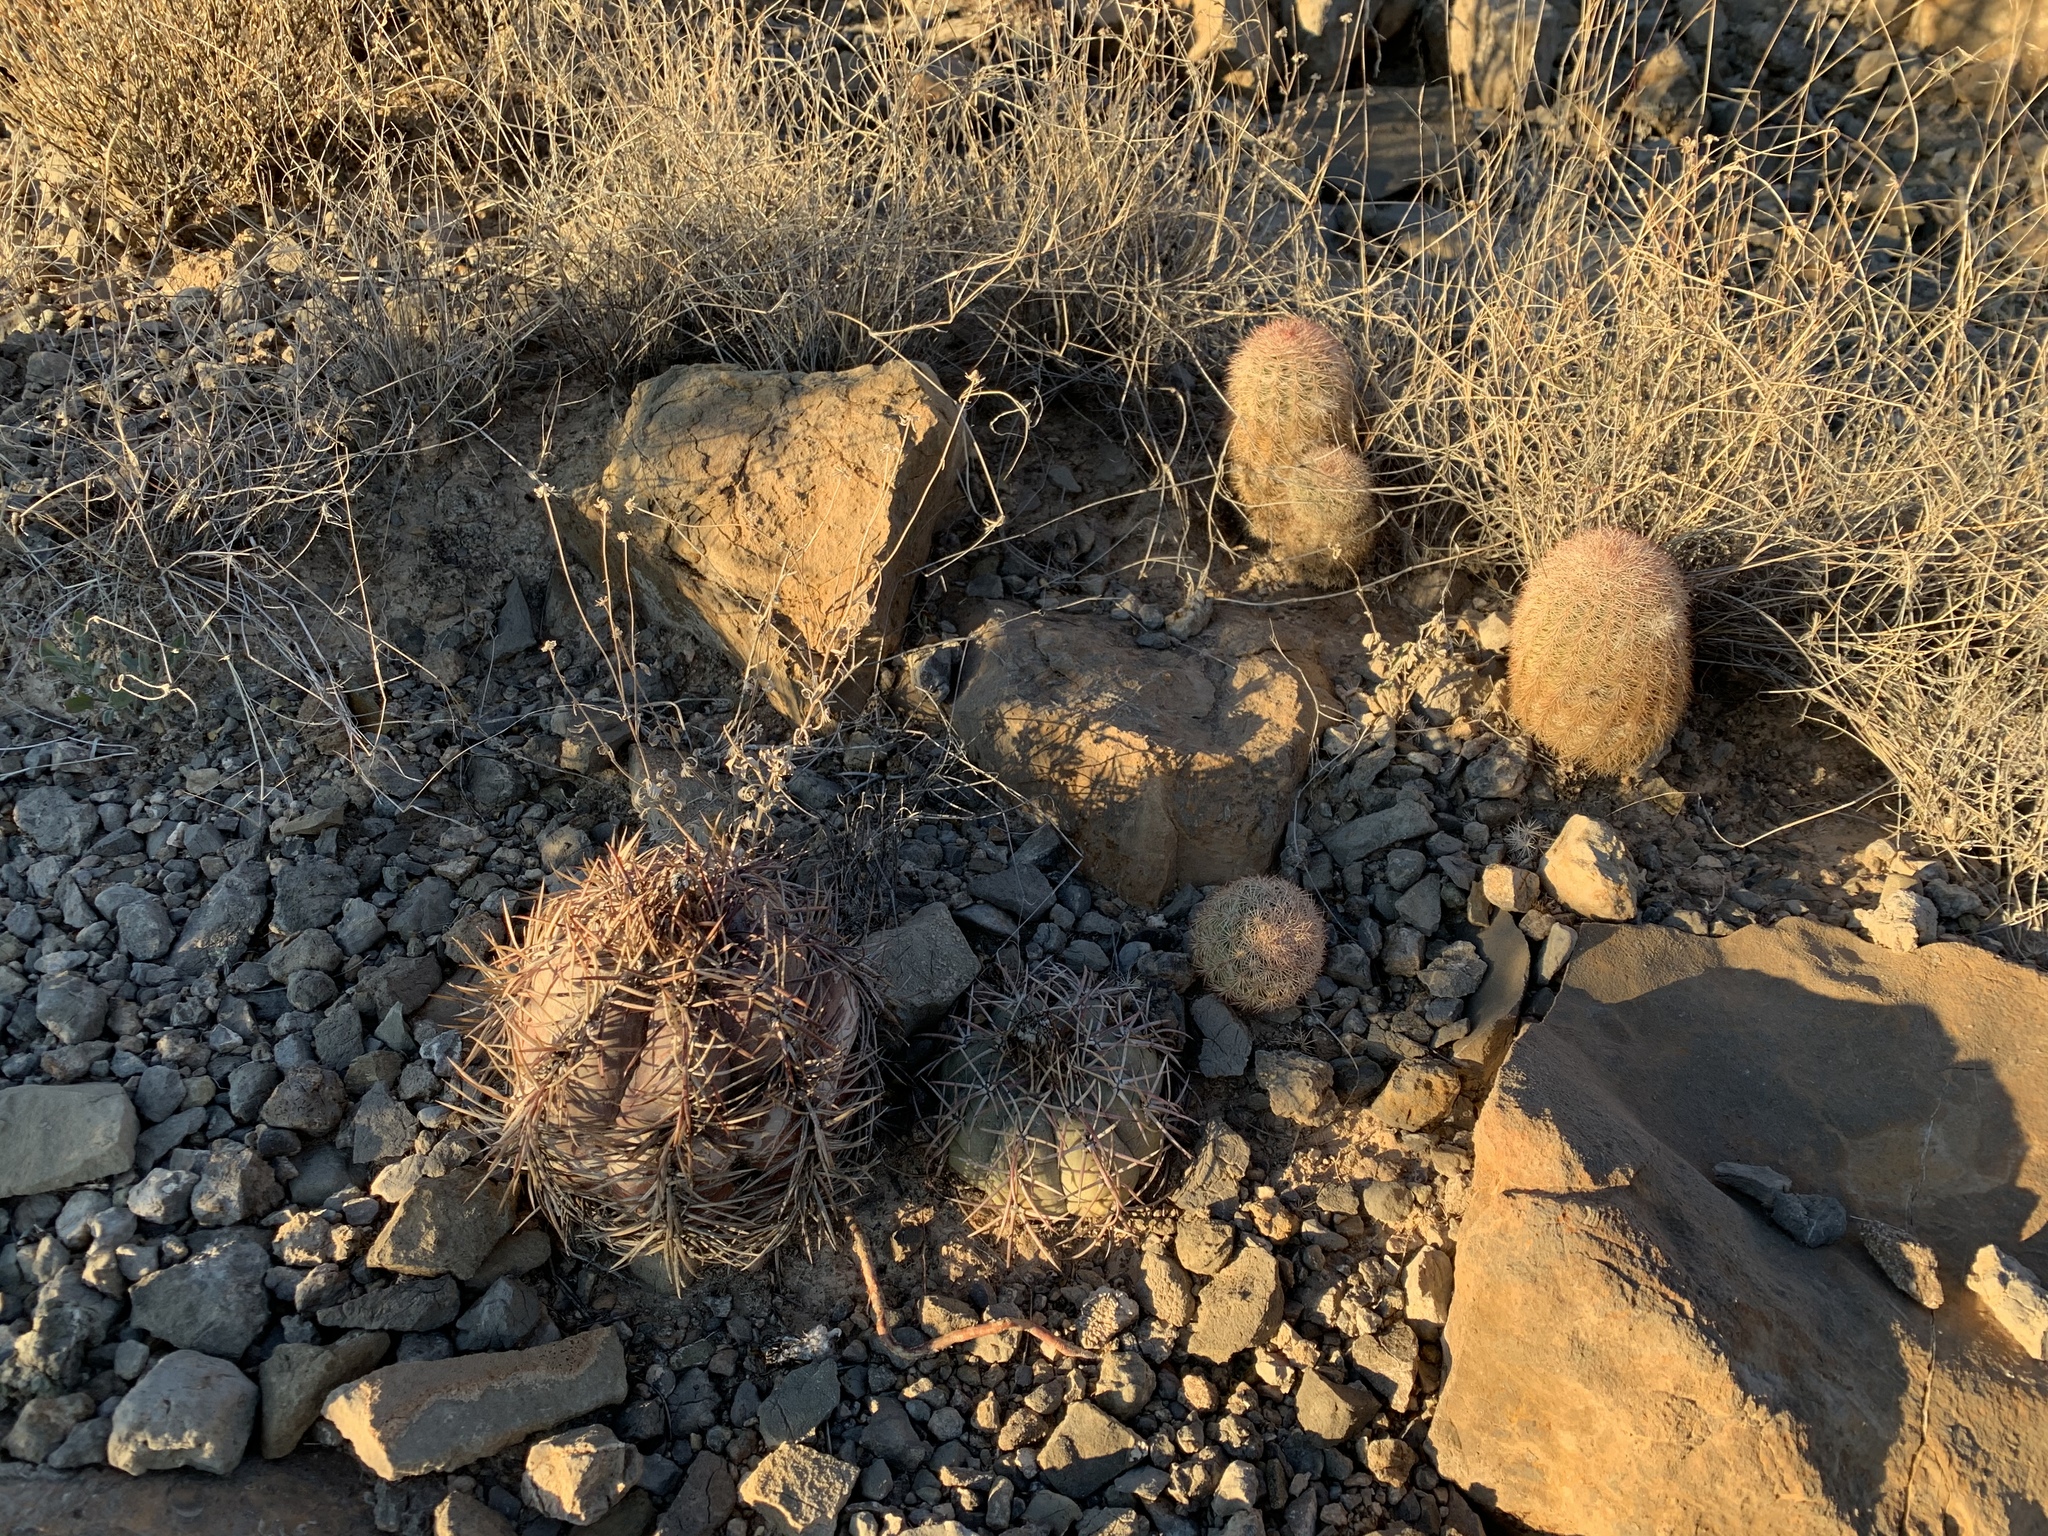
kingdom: Plantae
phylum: Tracheophyta
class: Magnoliopsida
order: Caryophyllales
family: Cactaceae
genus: Echinocereus
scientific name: Echinocereus dasyacanthus
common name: Spiny hedgehog cactus
